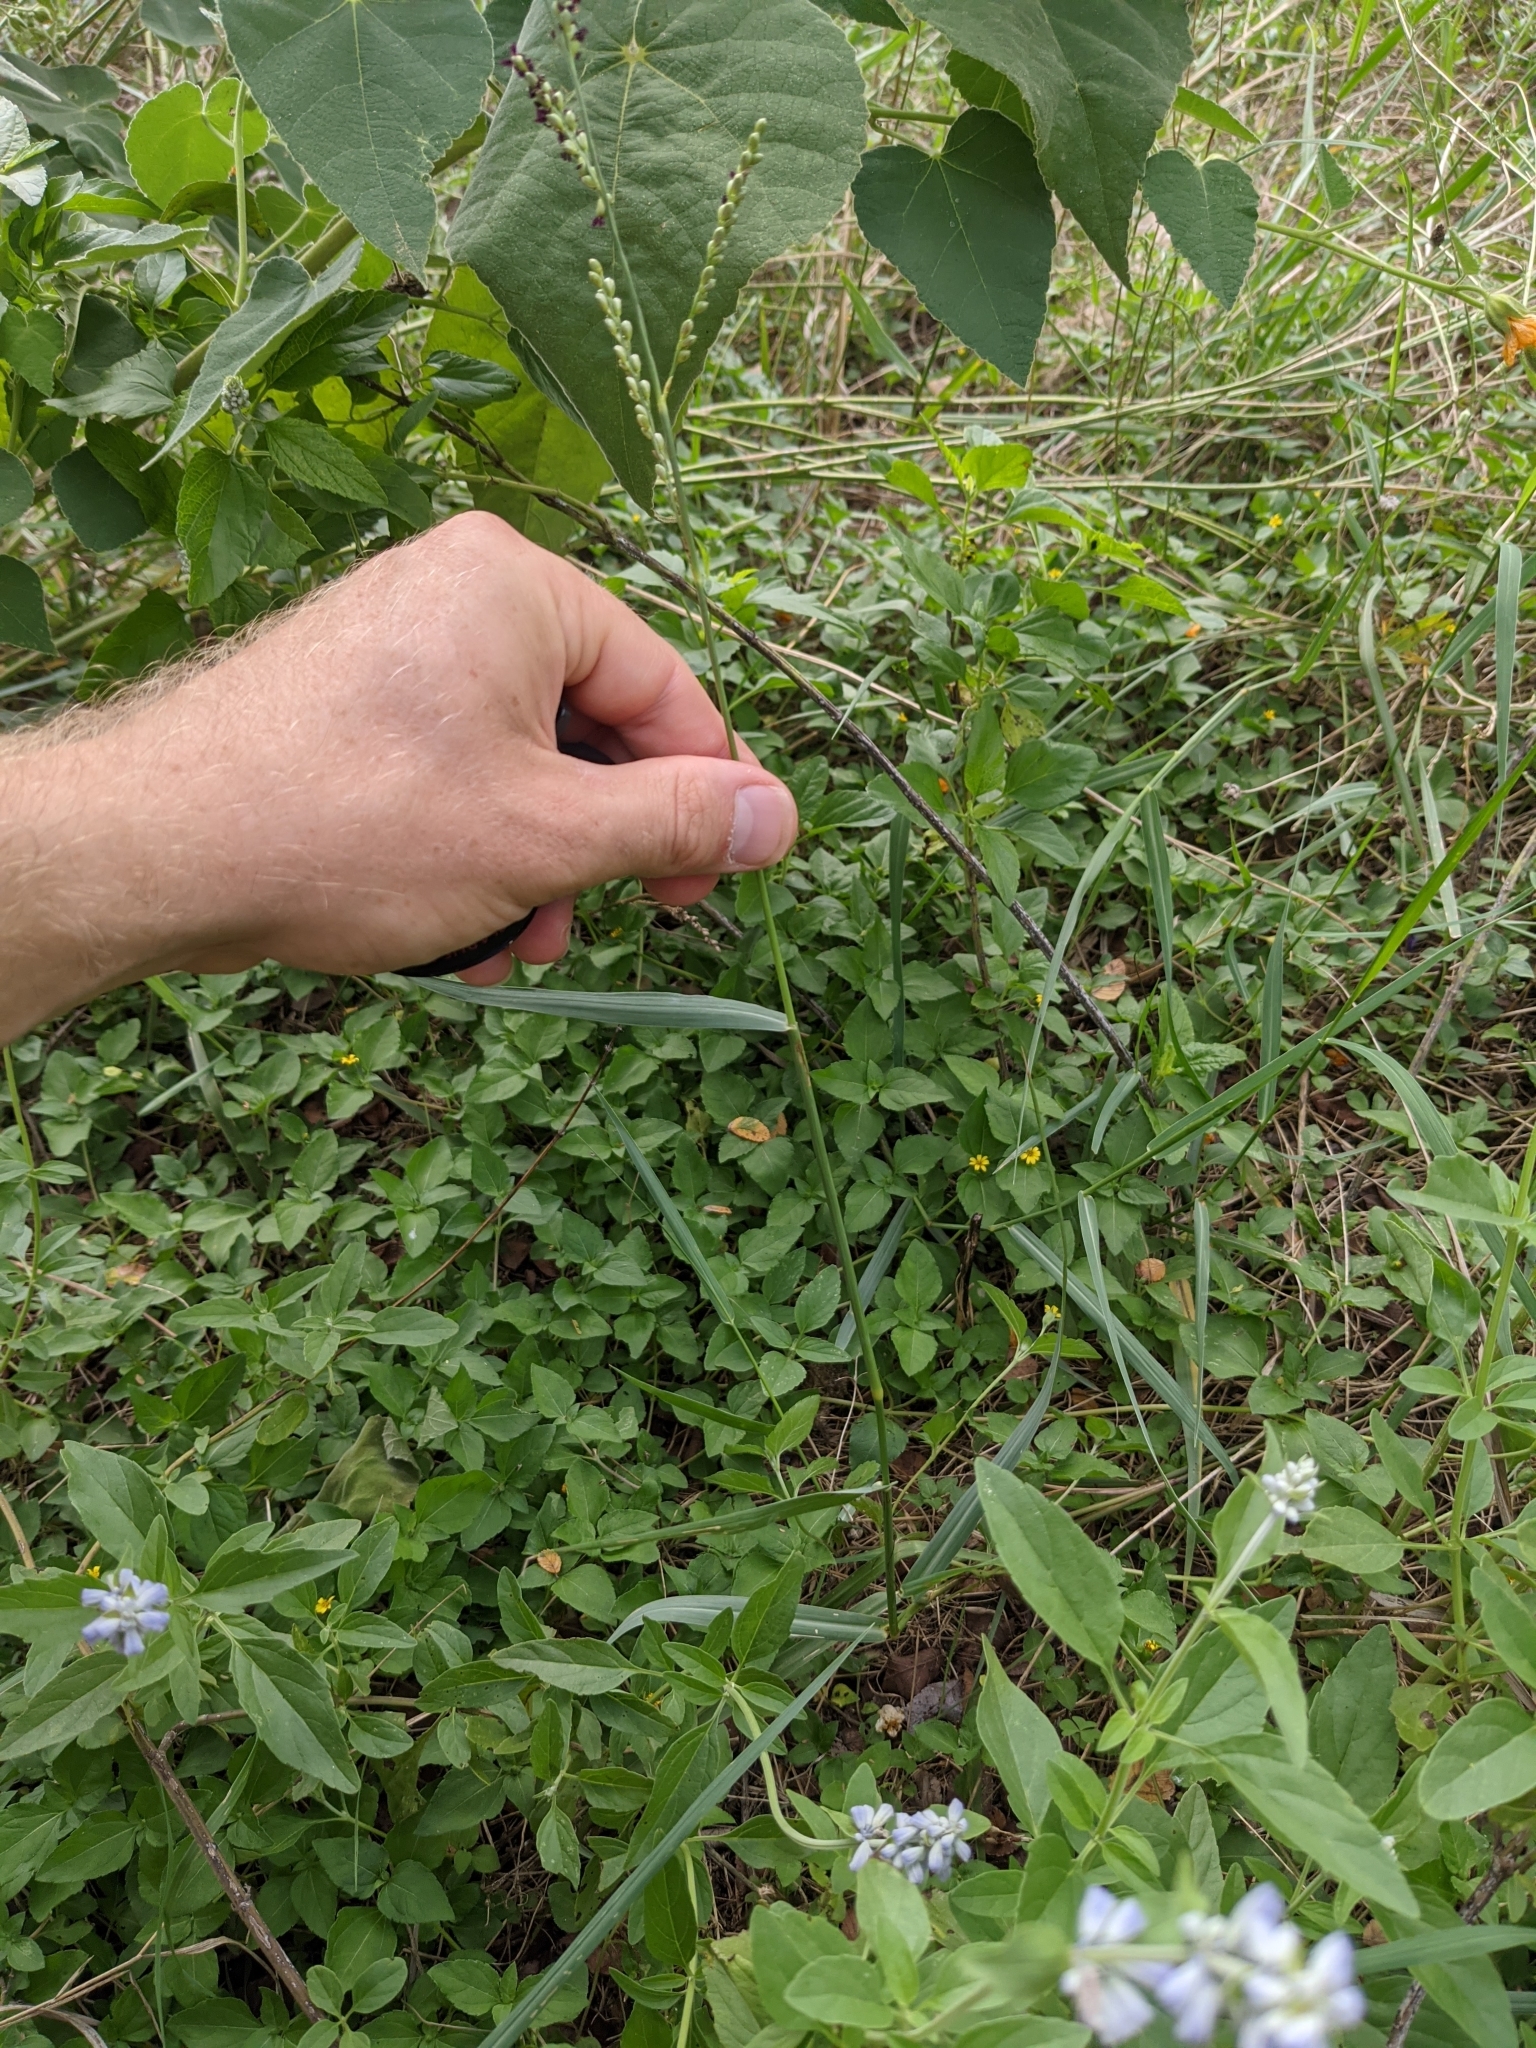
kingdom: Plantae
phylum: Tracheophyta
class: Liliopsida
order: Poales
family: Poaceae
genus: Hopia
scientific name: Hopia obtusa
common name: Vine-mesquite
